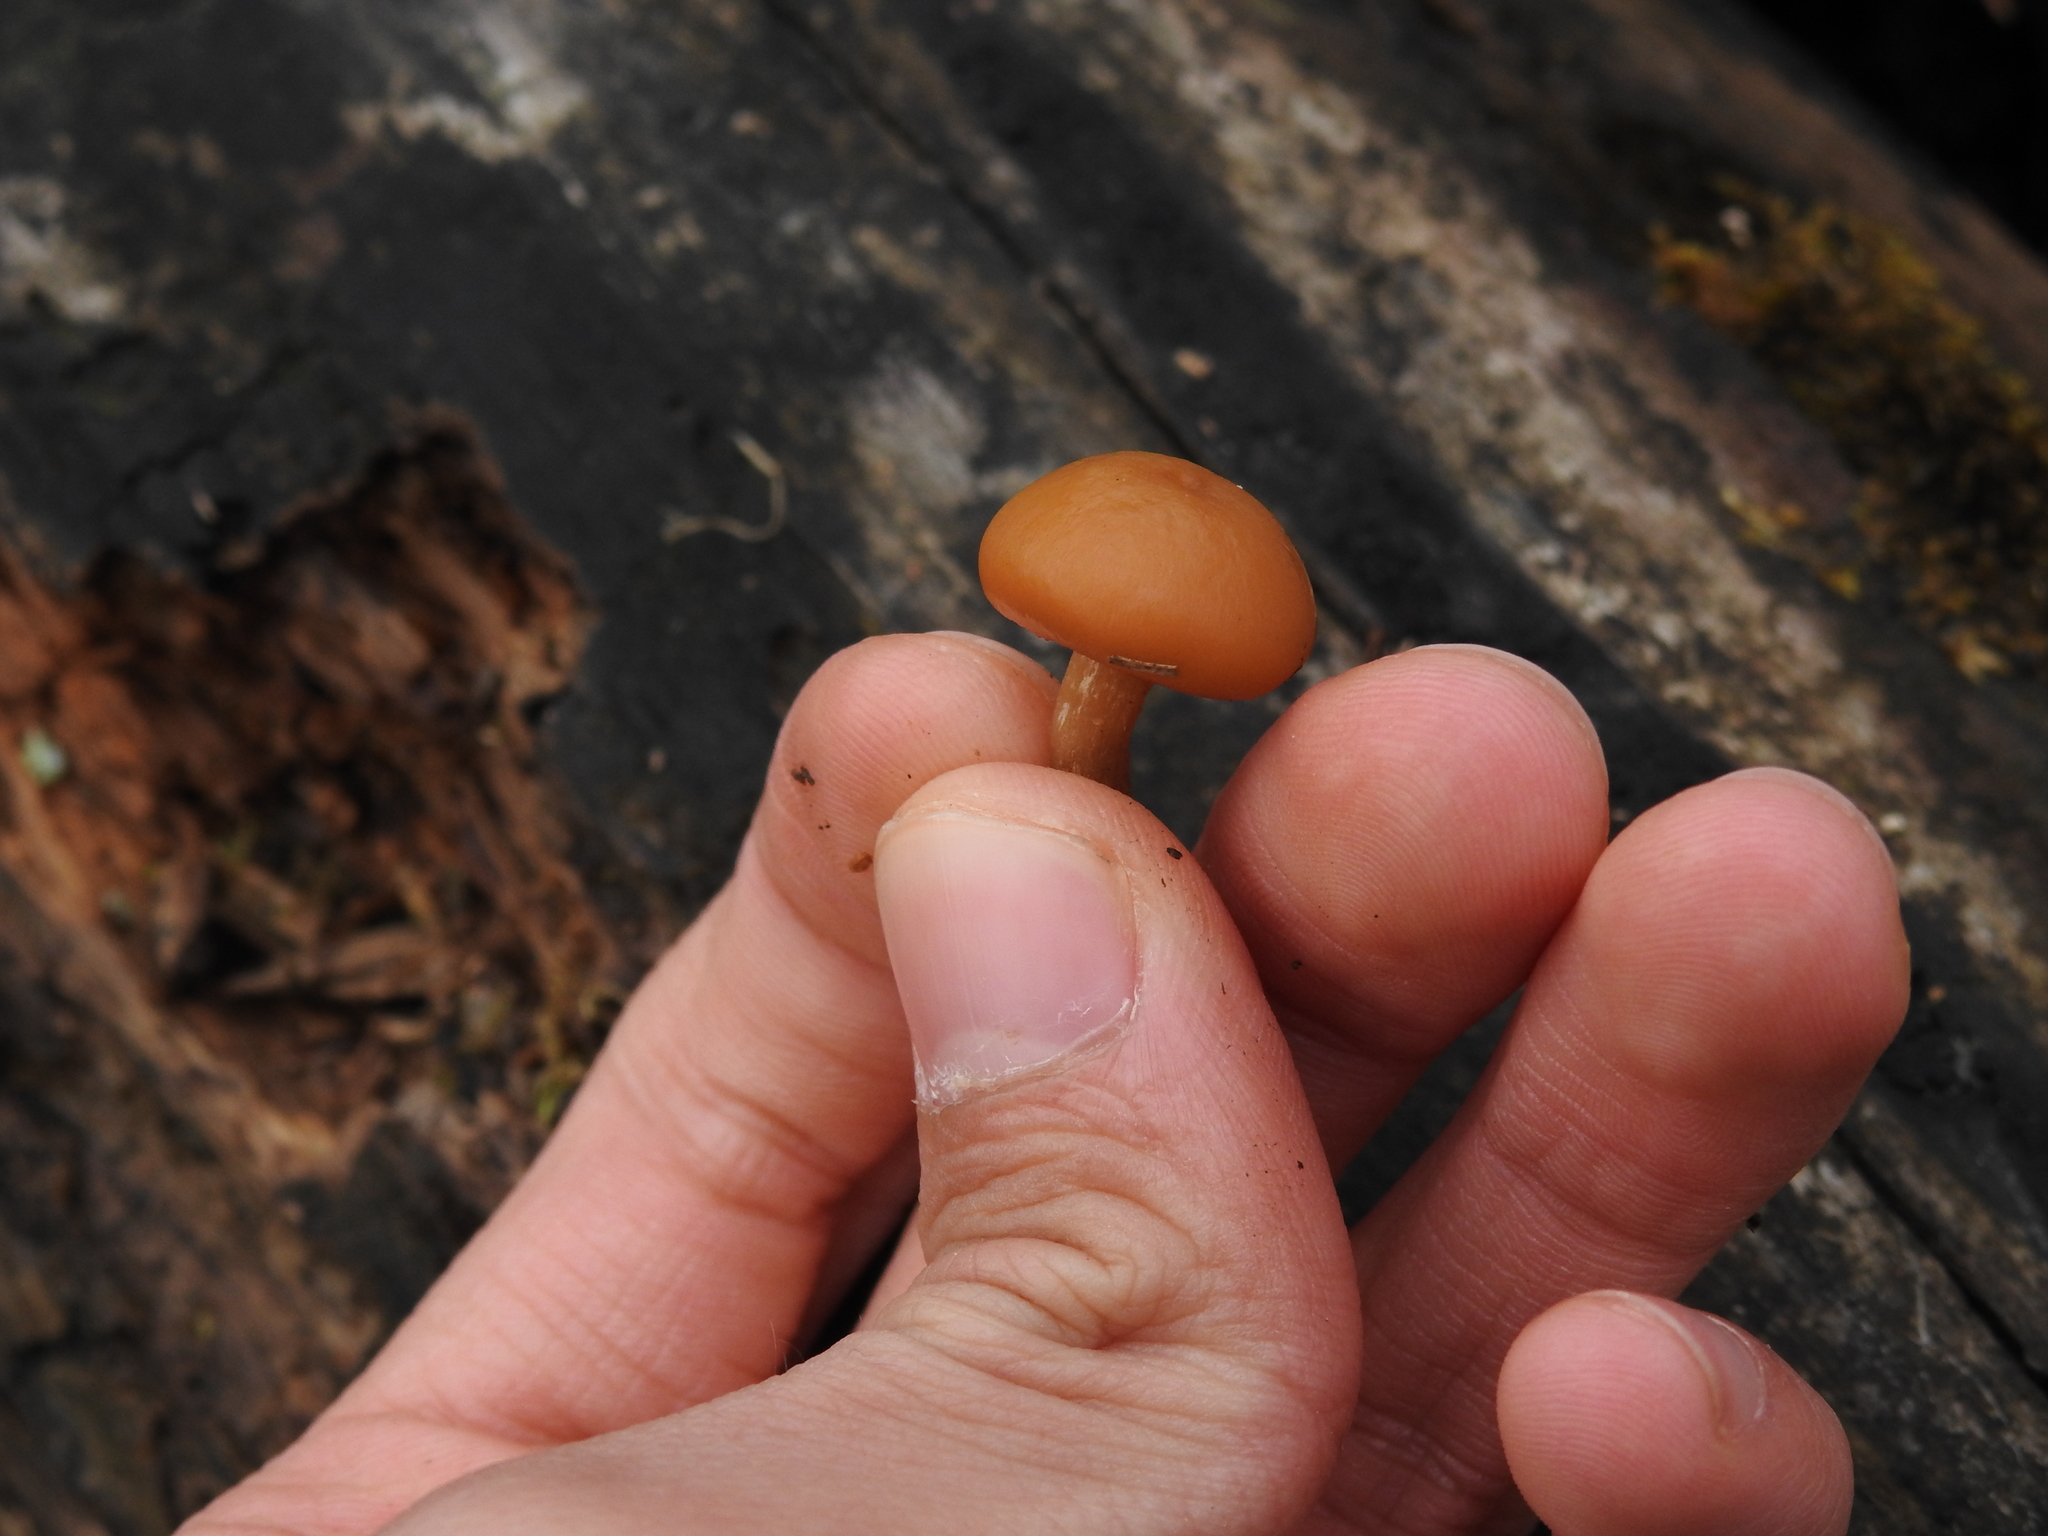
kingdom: Fungi
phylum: Basidiomycota
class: Agaricomycetes
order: Agaricales
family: Hymenogastraceae
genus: Galerina
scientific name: Galerina marginata
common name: Funeral bell
